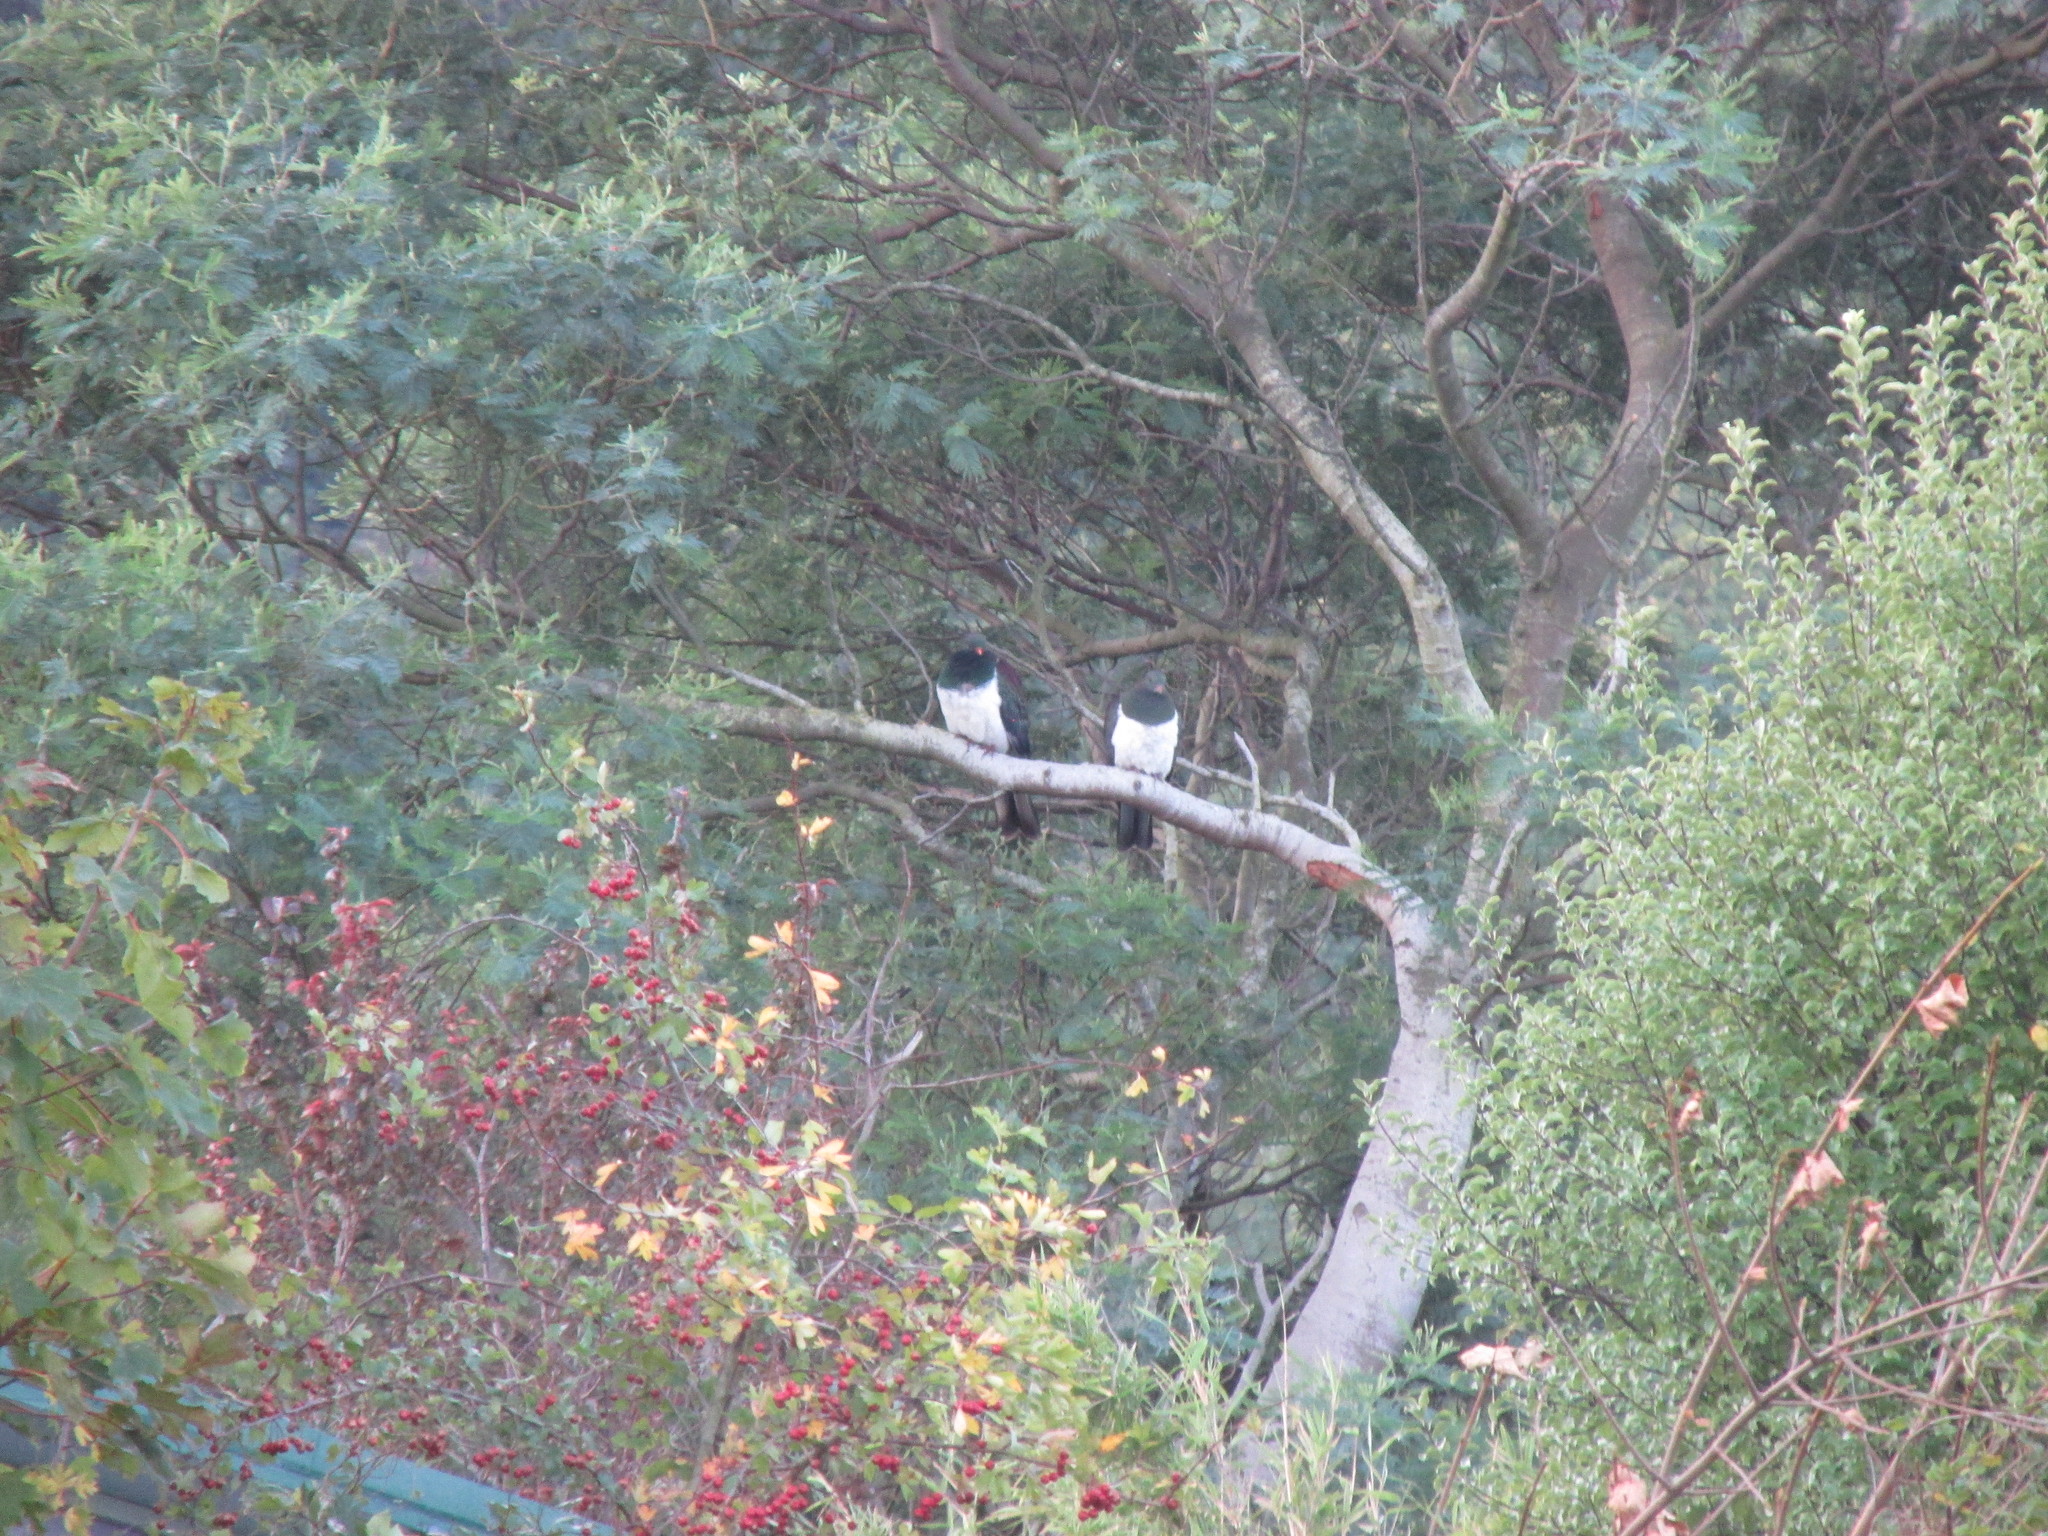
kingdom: Animalia
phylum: Chordata
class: Aves
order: Columbiformes
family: Columbidae
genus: Hemiphaga
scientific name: Hemiphaga novaeseelandiae
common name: New zealand pigeon
